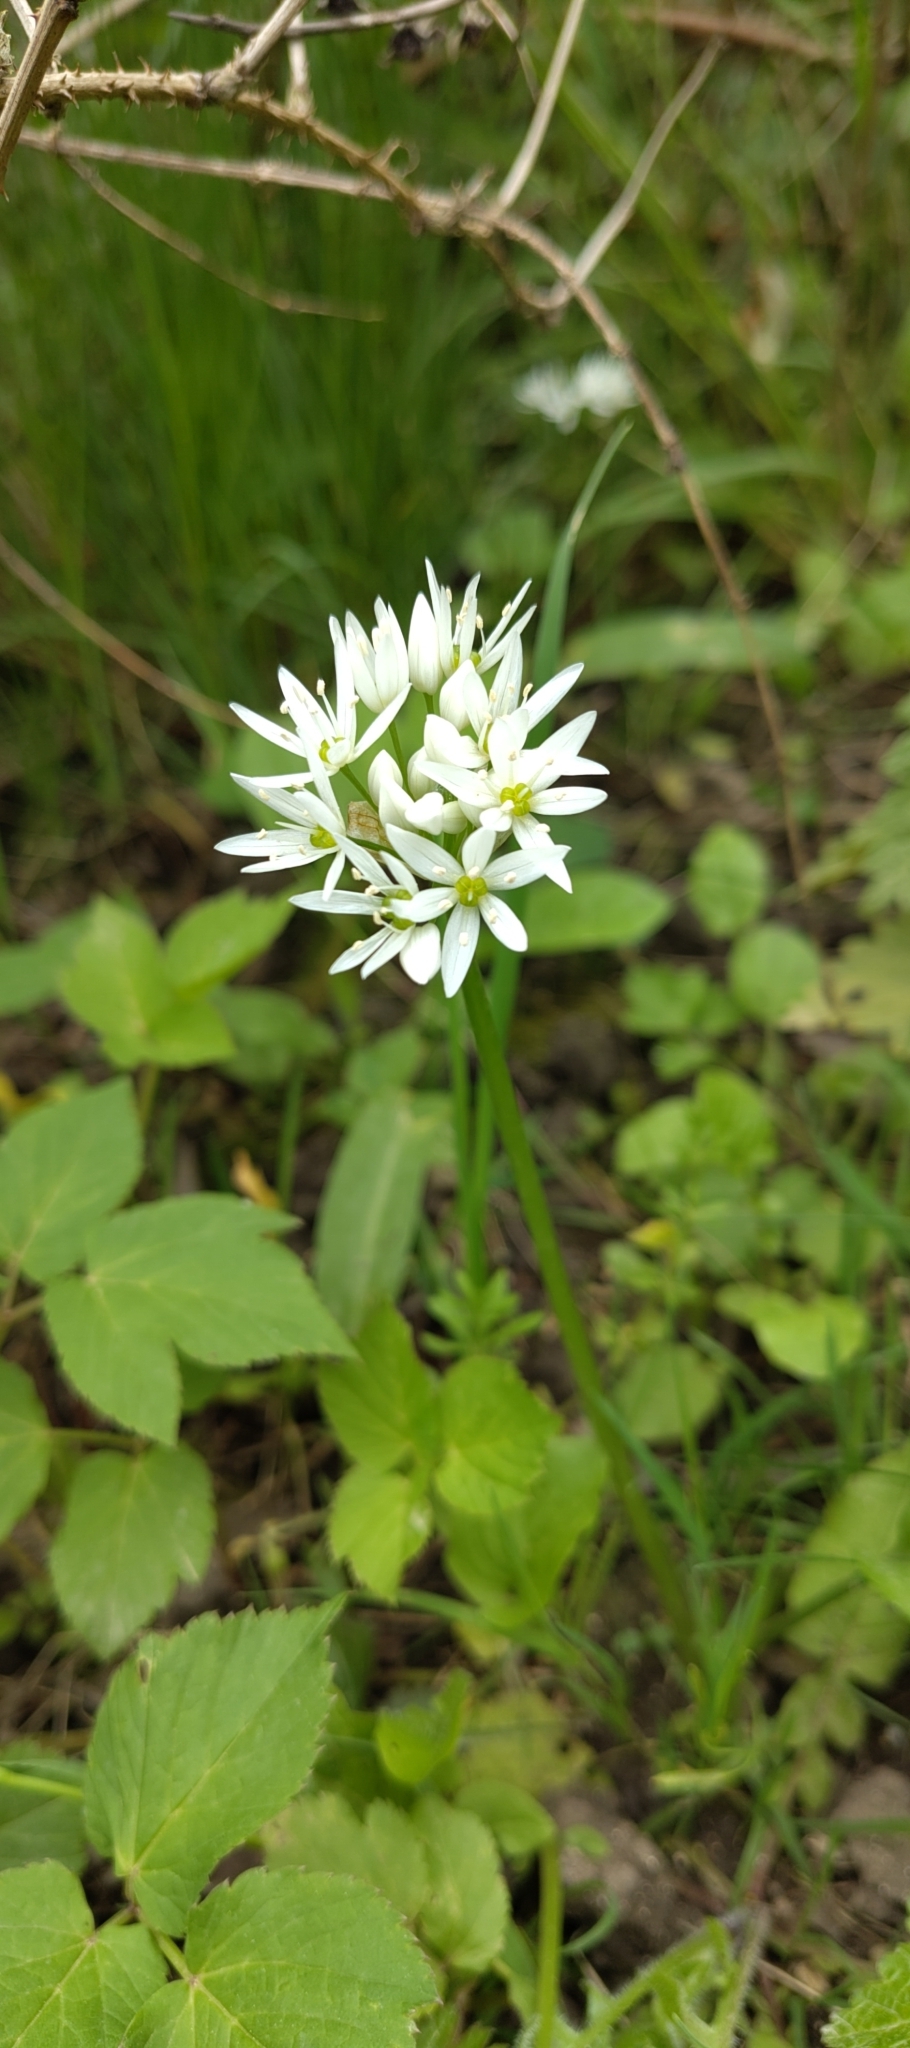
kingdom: Plantae
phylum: Tracheophyta
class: Liliopsida
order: Asparagales
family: Amaryllidaceae
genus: Allium
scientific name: Allium ursinum
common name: Ramsons
